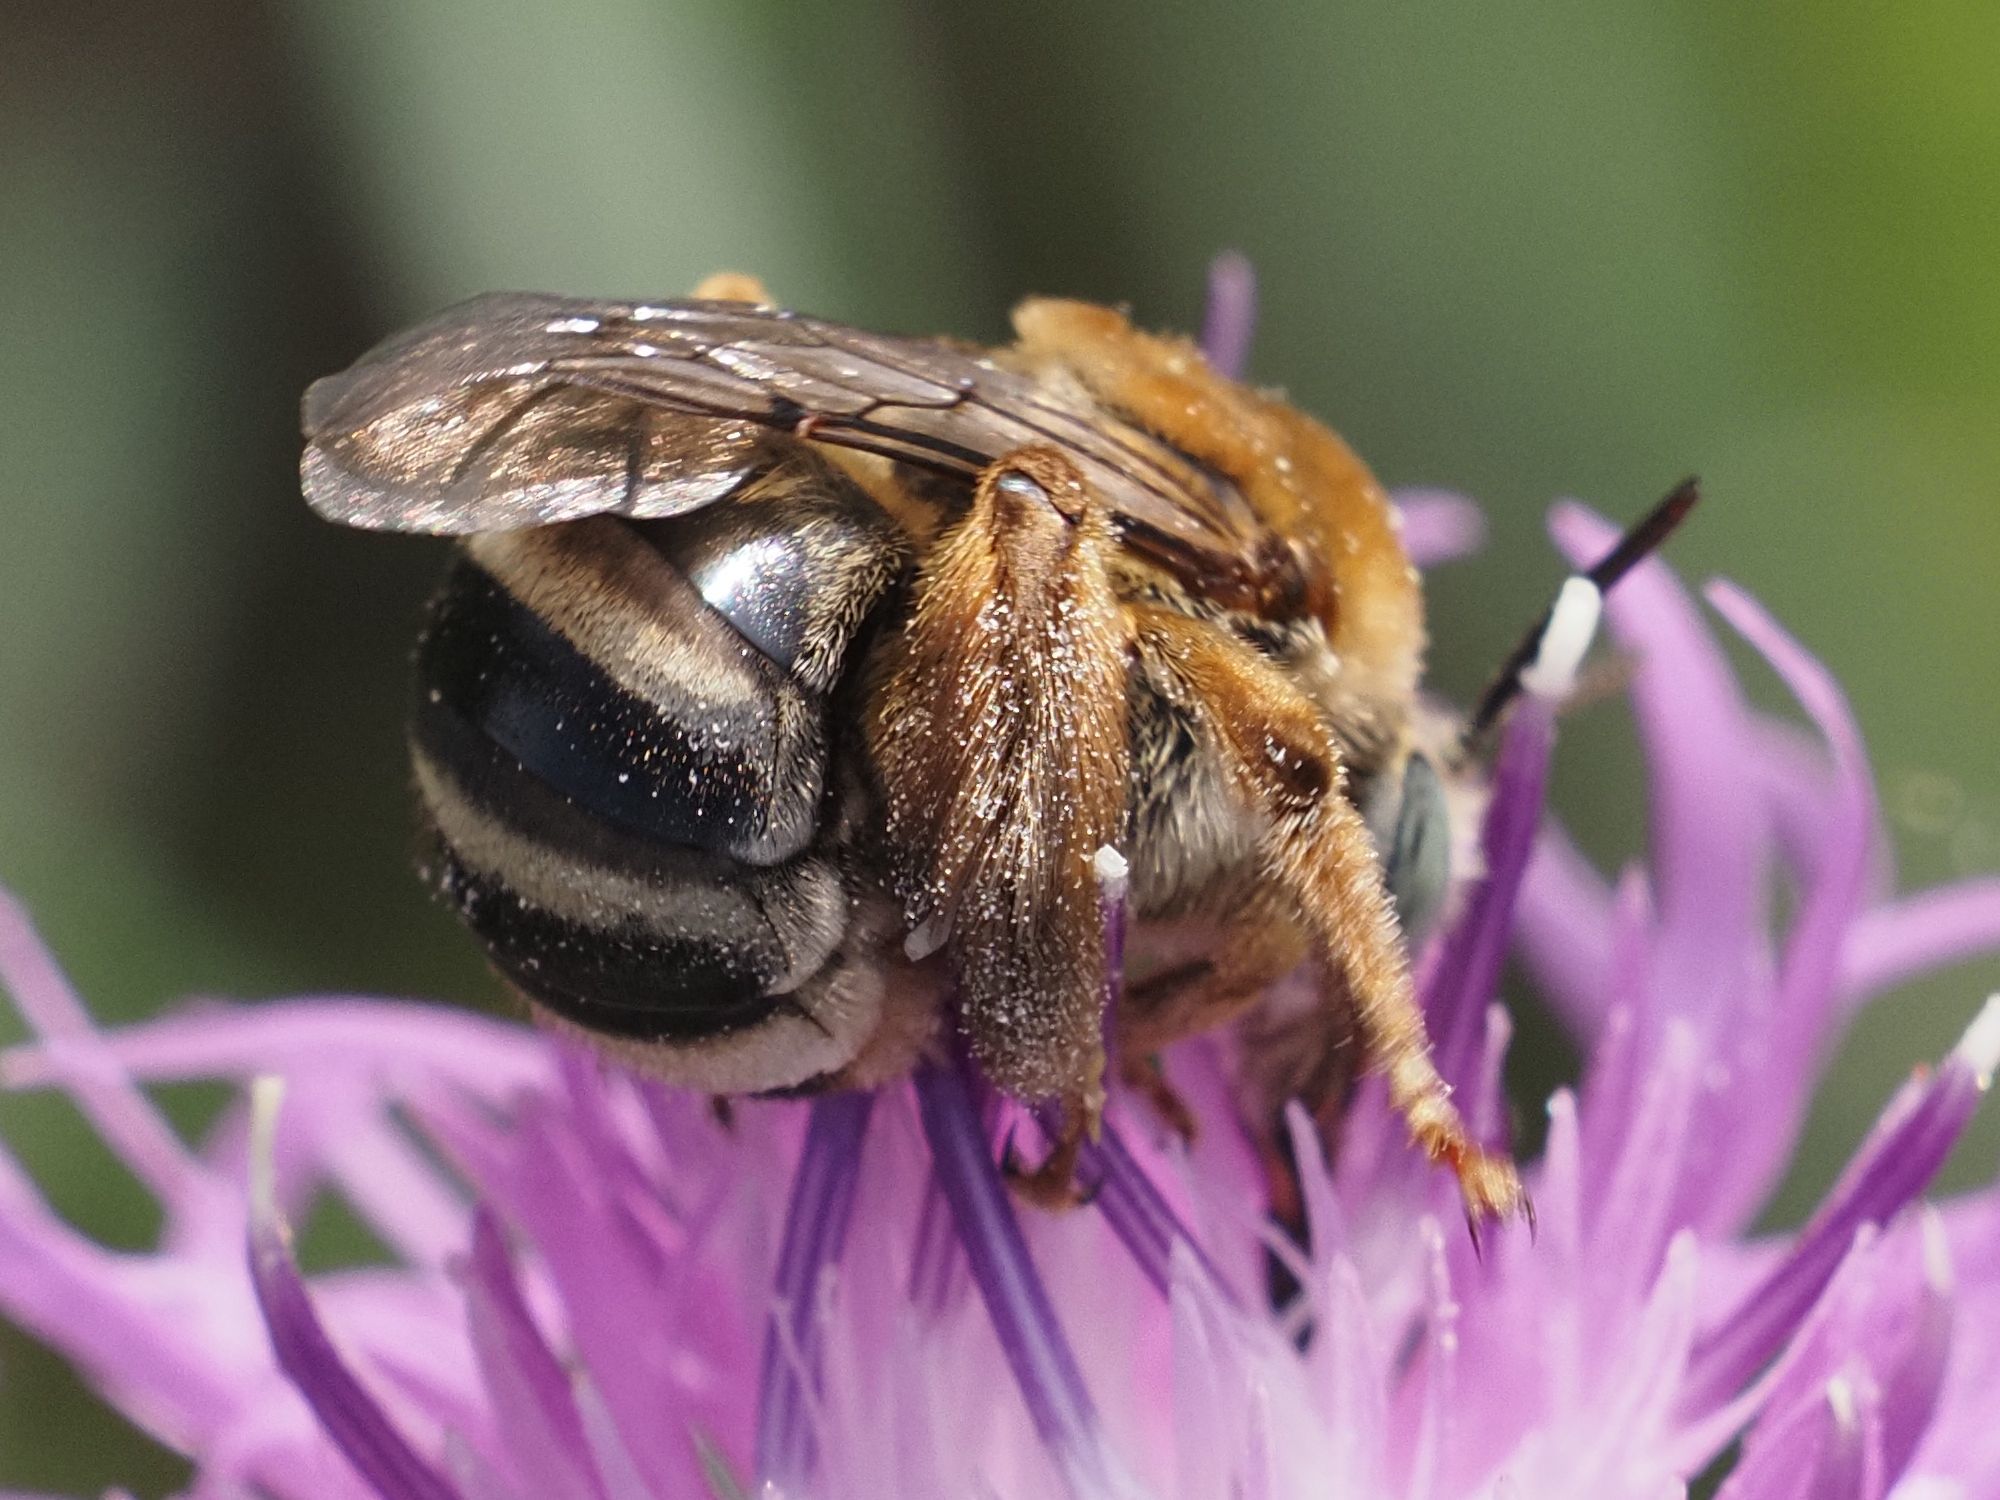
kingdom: Animalia
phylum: Arthropoda
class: Insecta
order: Hymenoptera
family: Apidae
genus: Tetraloniella
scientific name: Tetraloniella dentata
